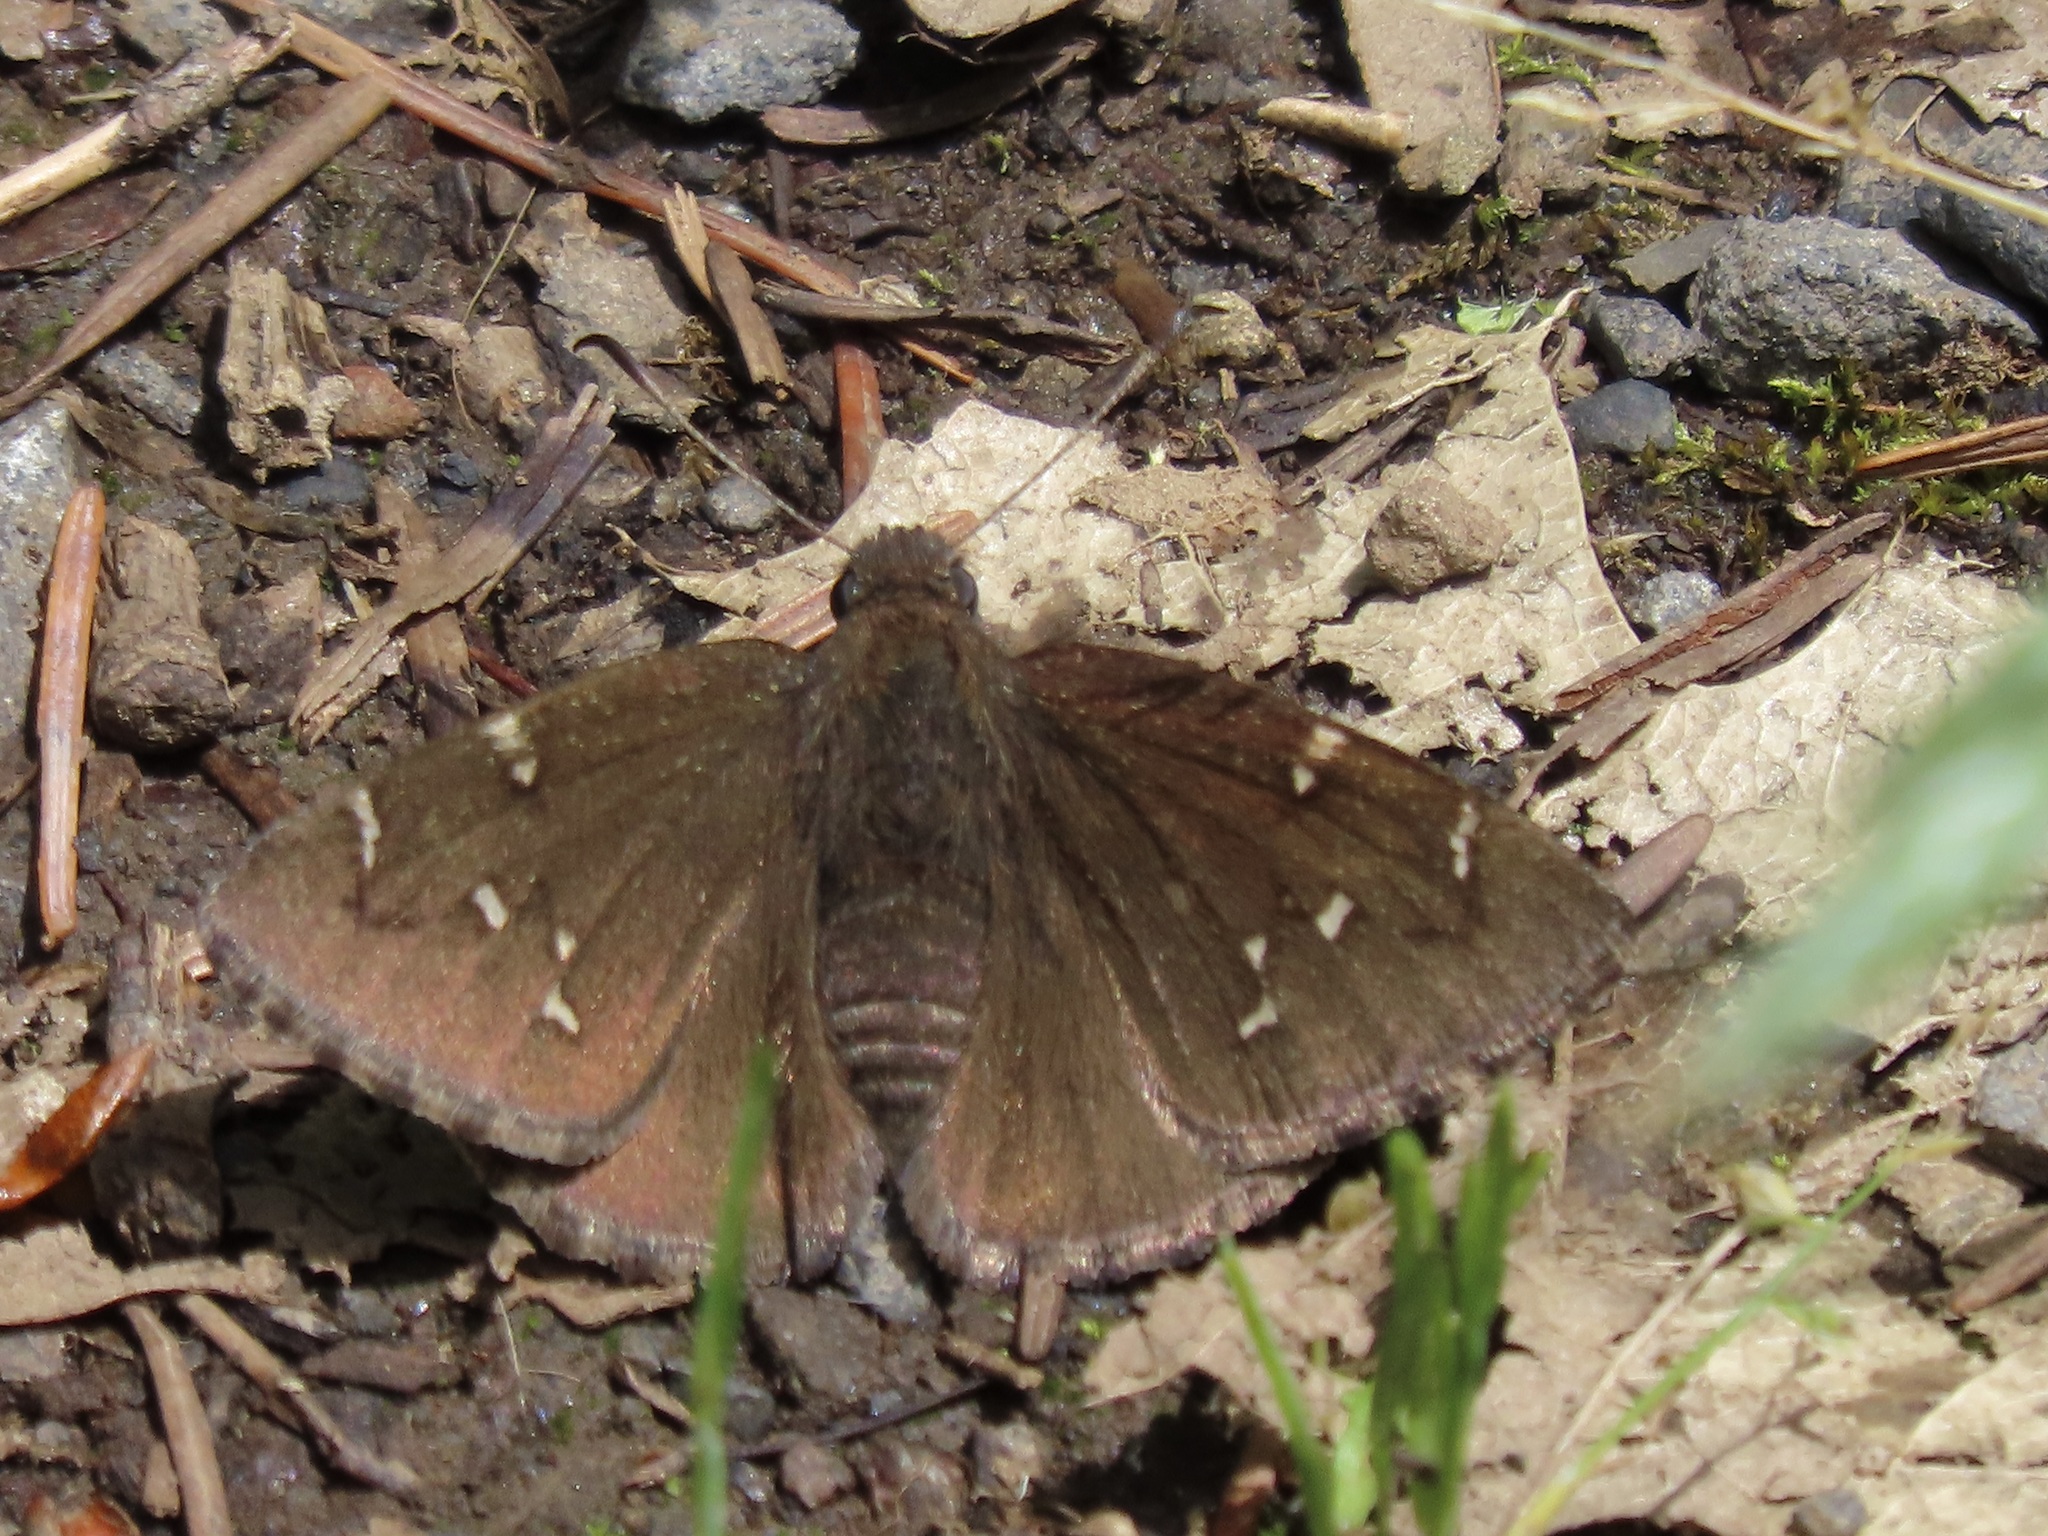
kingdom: Animalia
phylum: Arthropoda
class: Insecta
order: Lepidoptera
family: Hesperiidae
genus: Thorybes
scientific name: Thorybes pylades
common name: Northern cloudywing
